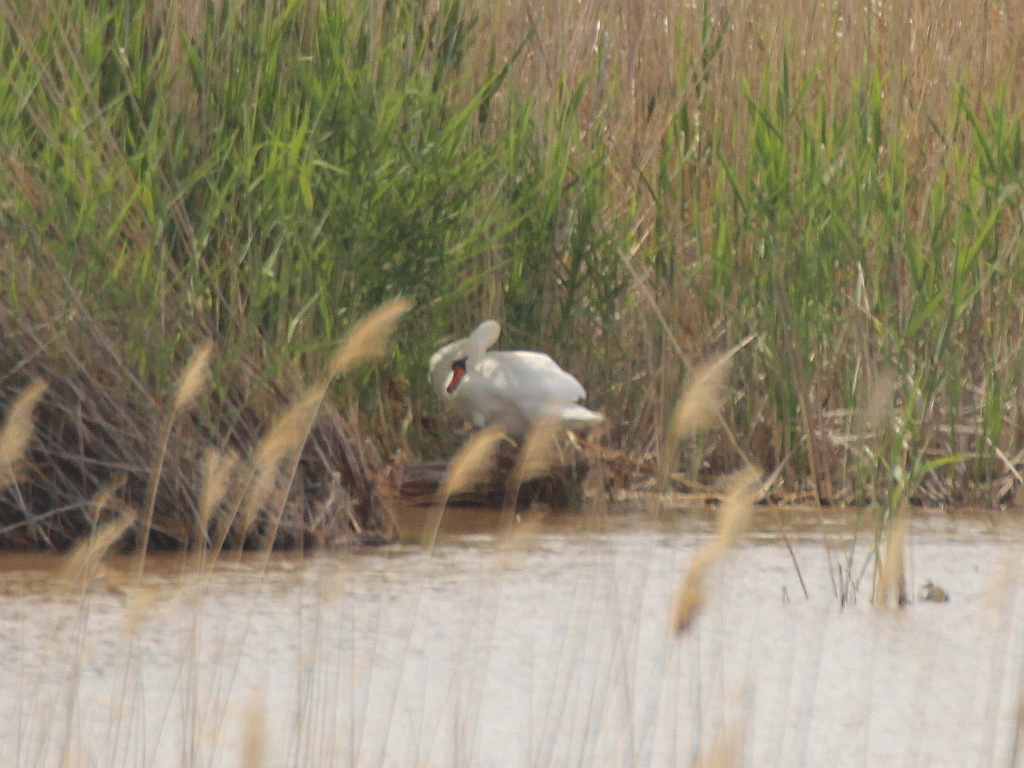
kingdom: Animalia
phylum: Chordata
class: Aves
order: Anseriformes
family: Anatidae
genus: Cygnus
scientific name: Cygnus olor
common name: Mute swan
